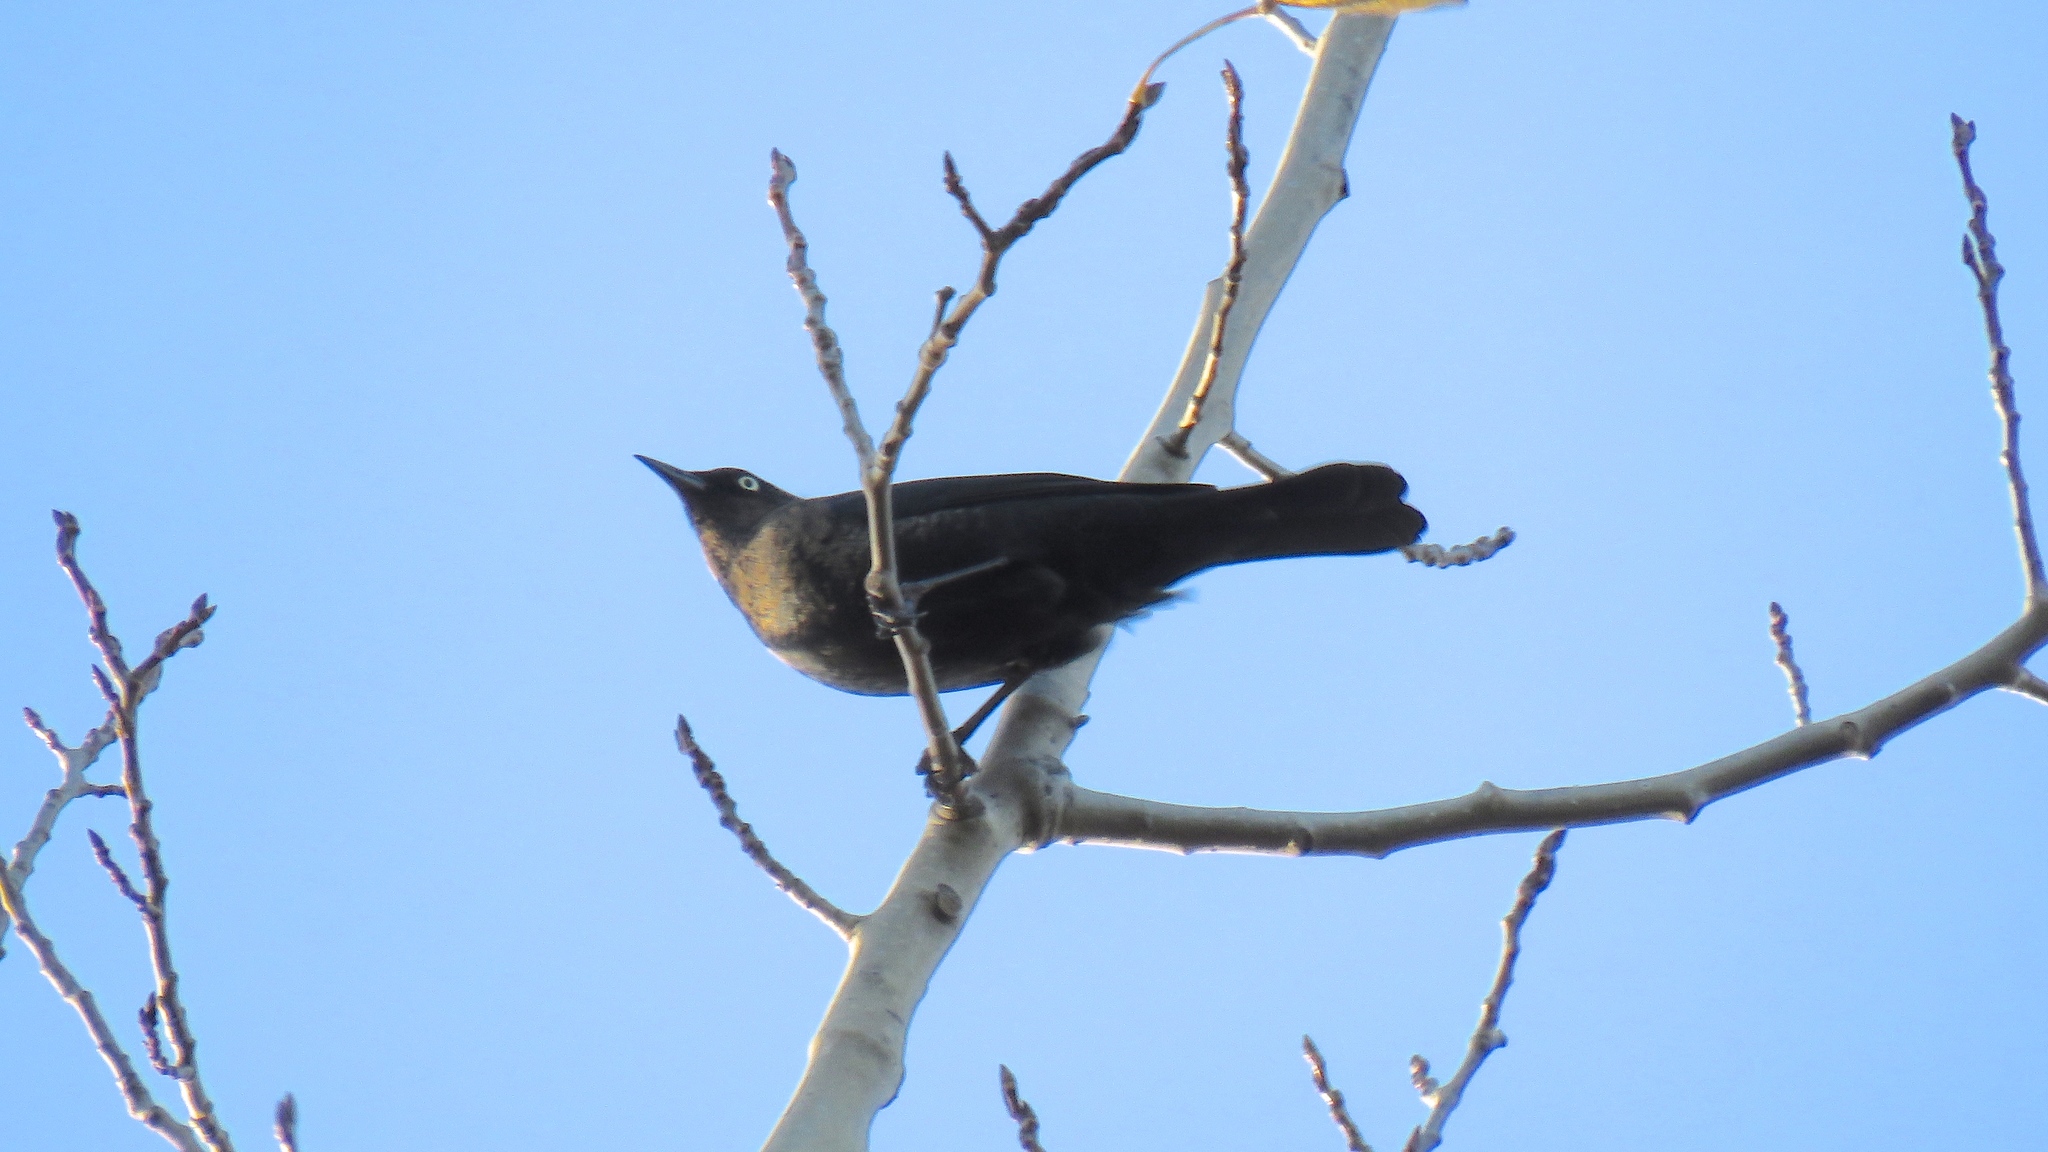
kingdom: Animalia
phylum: Chordata
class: Aves
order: Passeriformes
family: Icteridae
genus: Euphagus
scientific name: Euphagus carolinus
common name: Rusty blackbird
